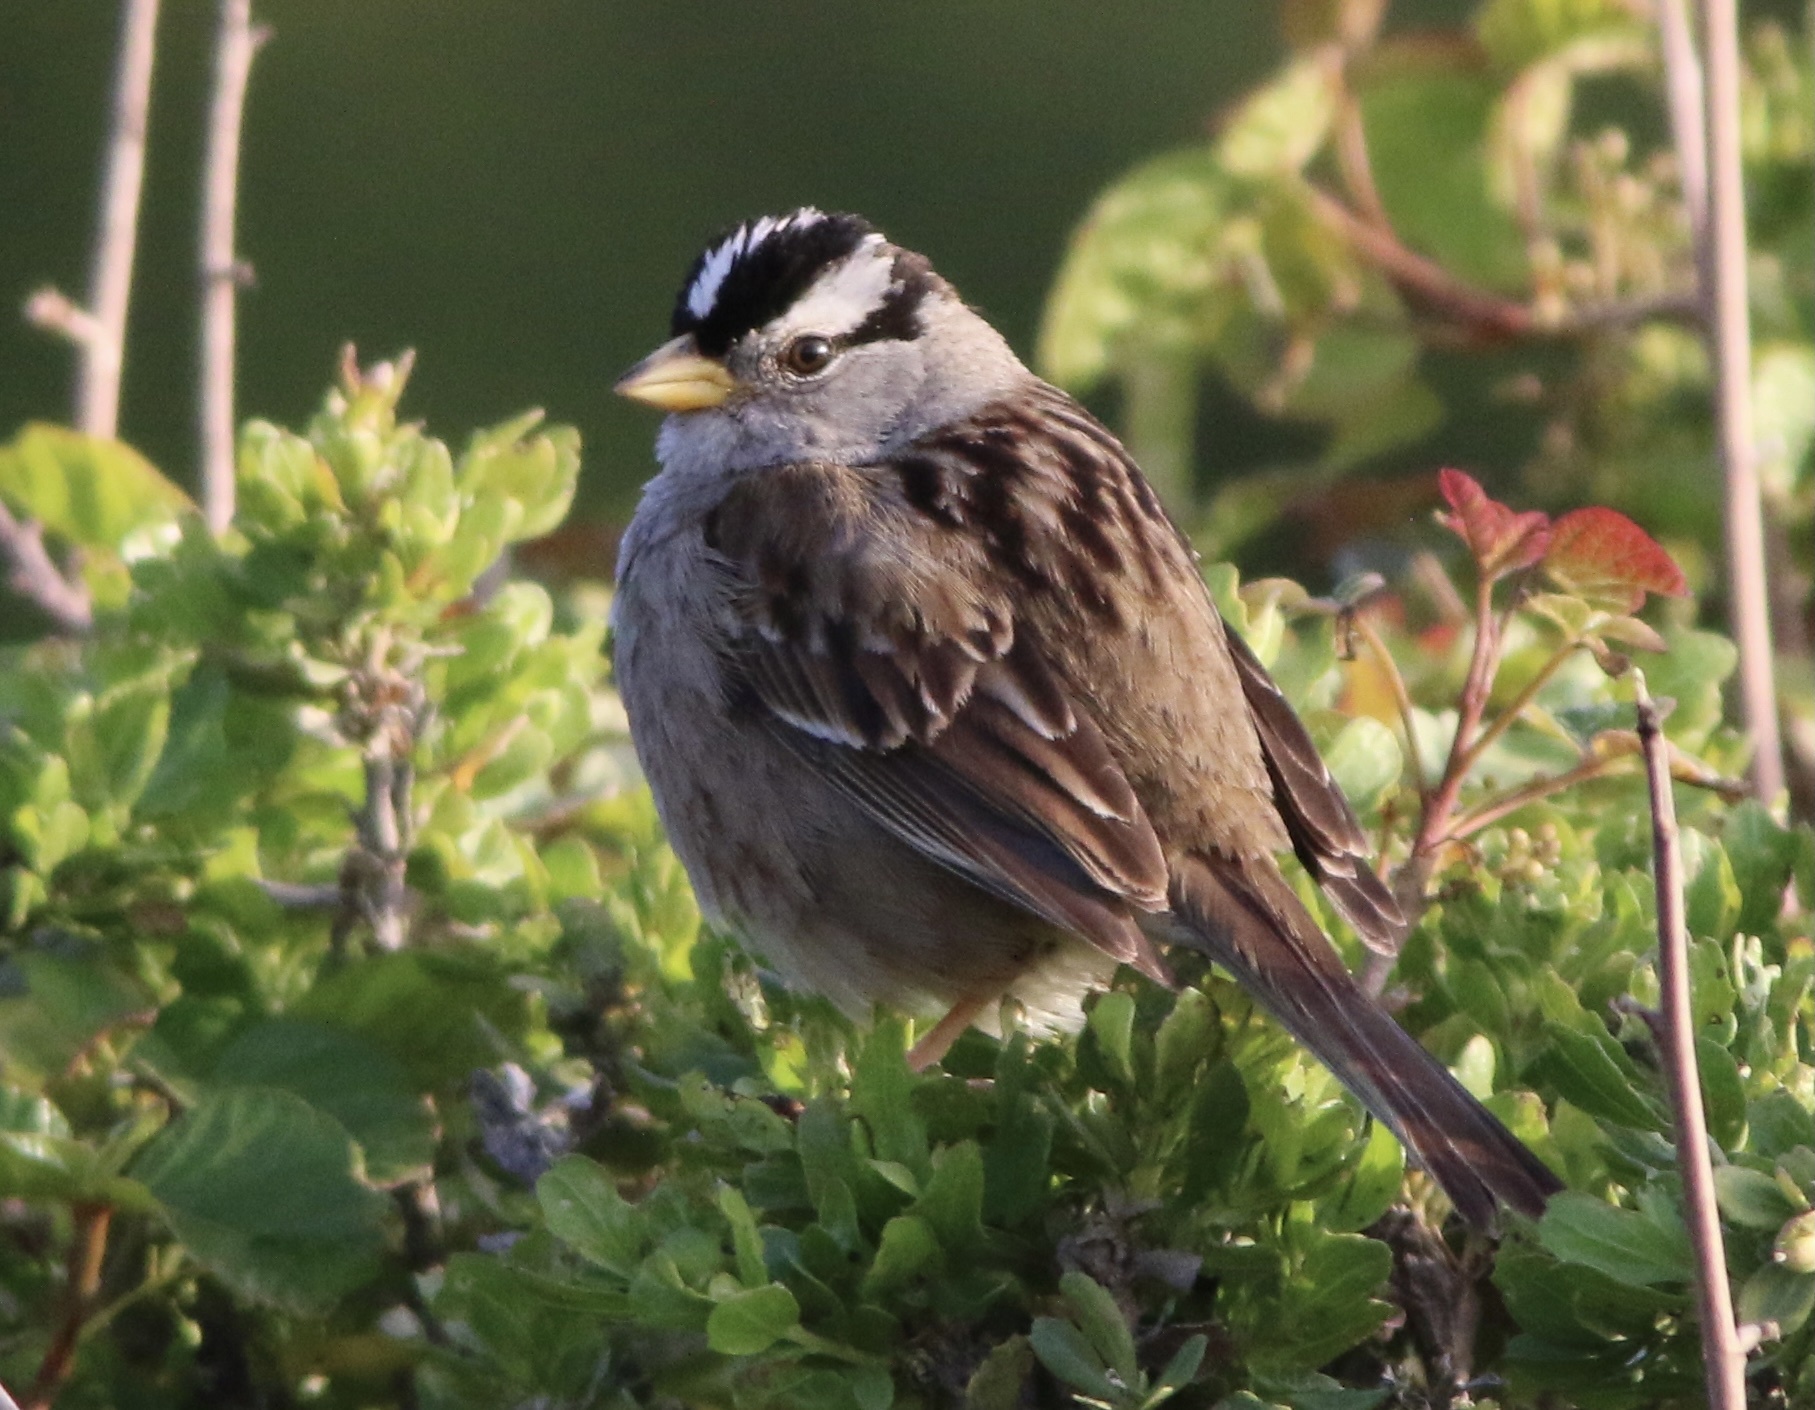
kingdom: Animalia
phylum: Chordata
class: Aves
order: Passeriformes
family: Passerellidae
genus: Zonotrichia
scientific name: Zonotrichia leucophrys
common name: White-crowned sparrow
